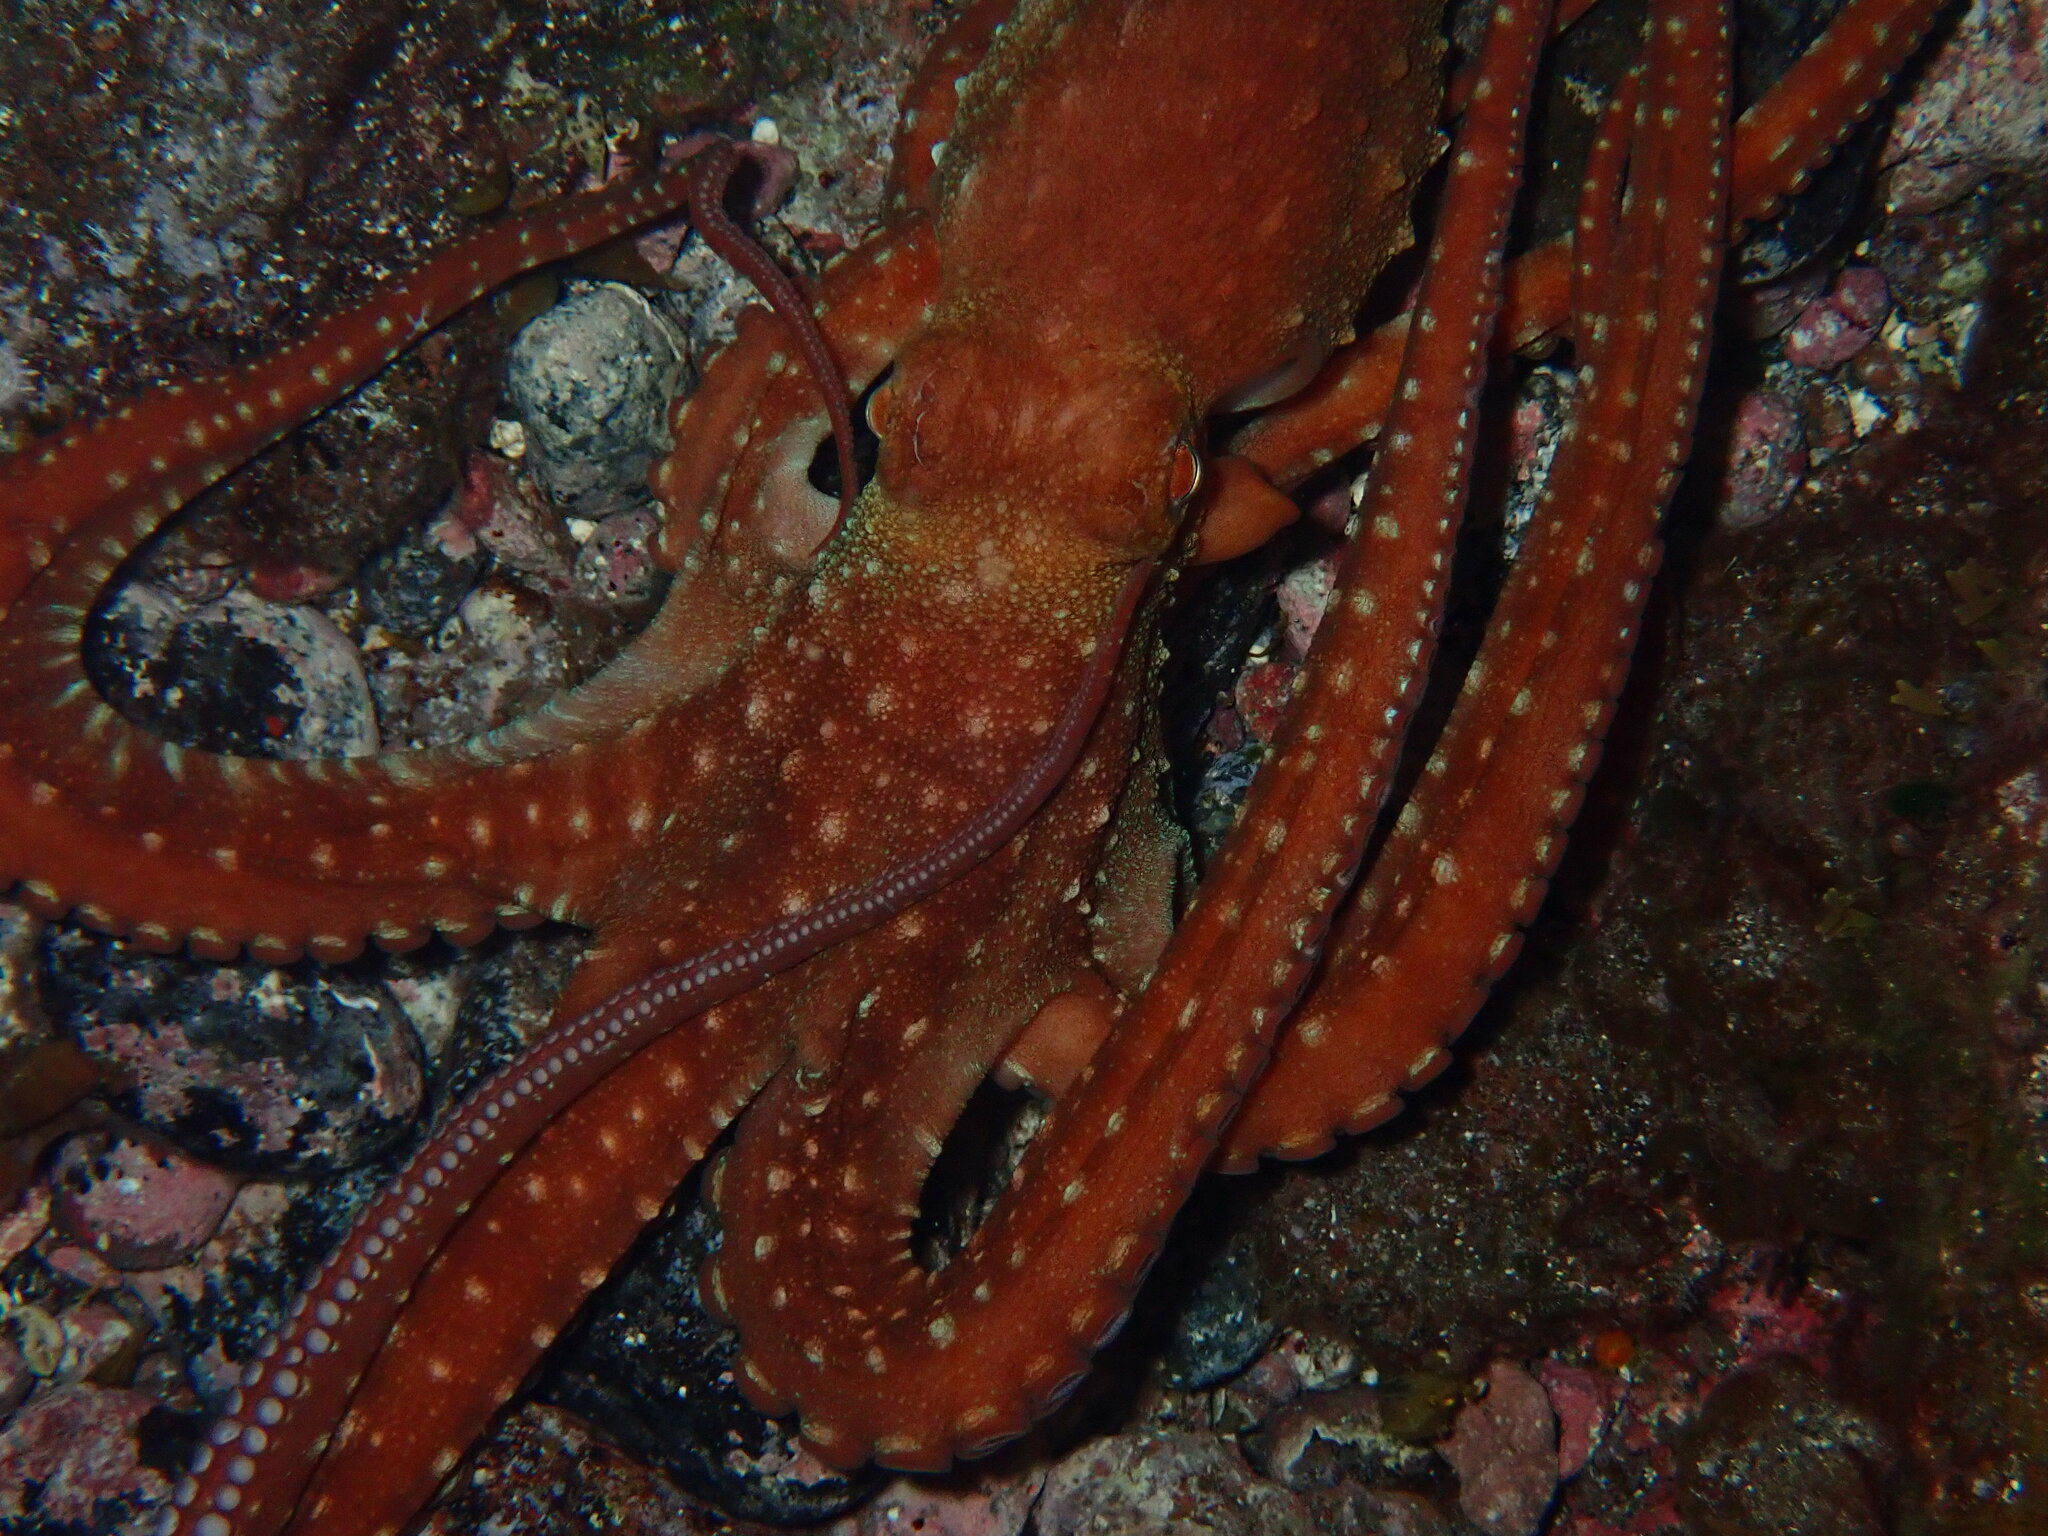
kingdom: Animalia
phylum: Mollusca
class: Cephalopoda
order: Octopoda
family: Octopodidae
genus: Callistoctopus
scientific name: Callistoctopus macropus
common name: Atlantic white-spotted octopus
